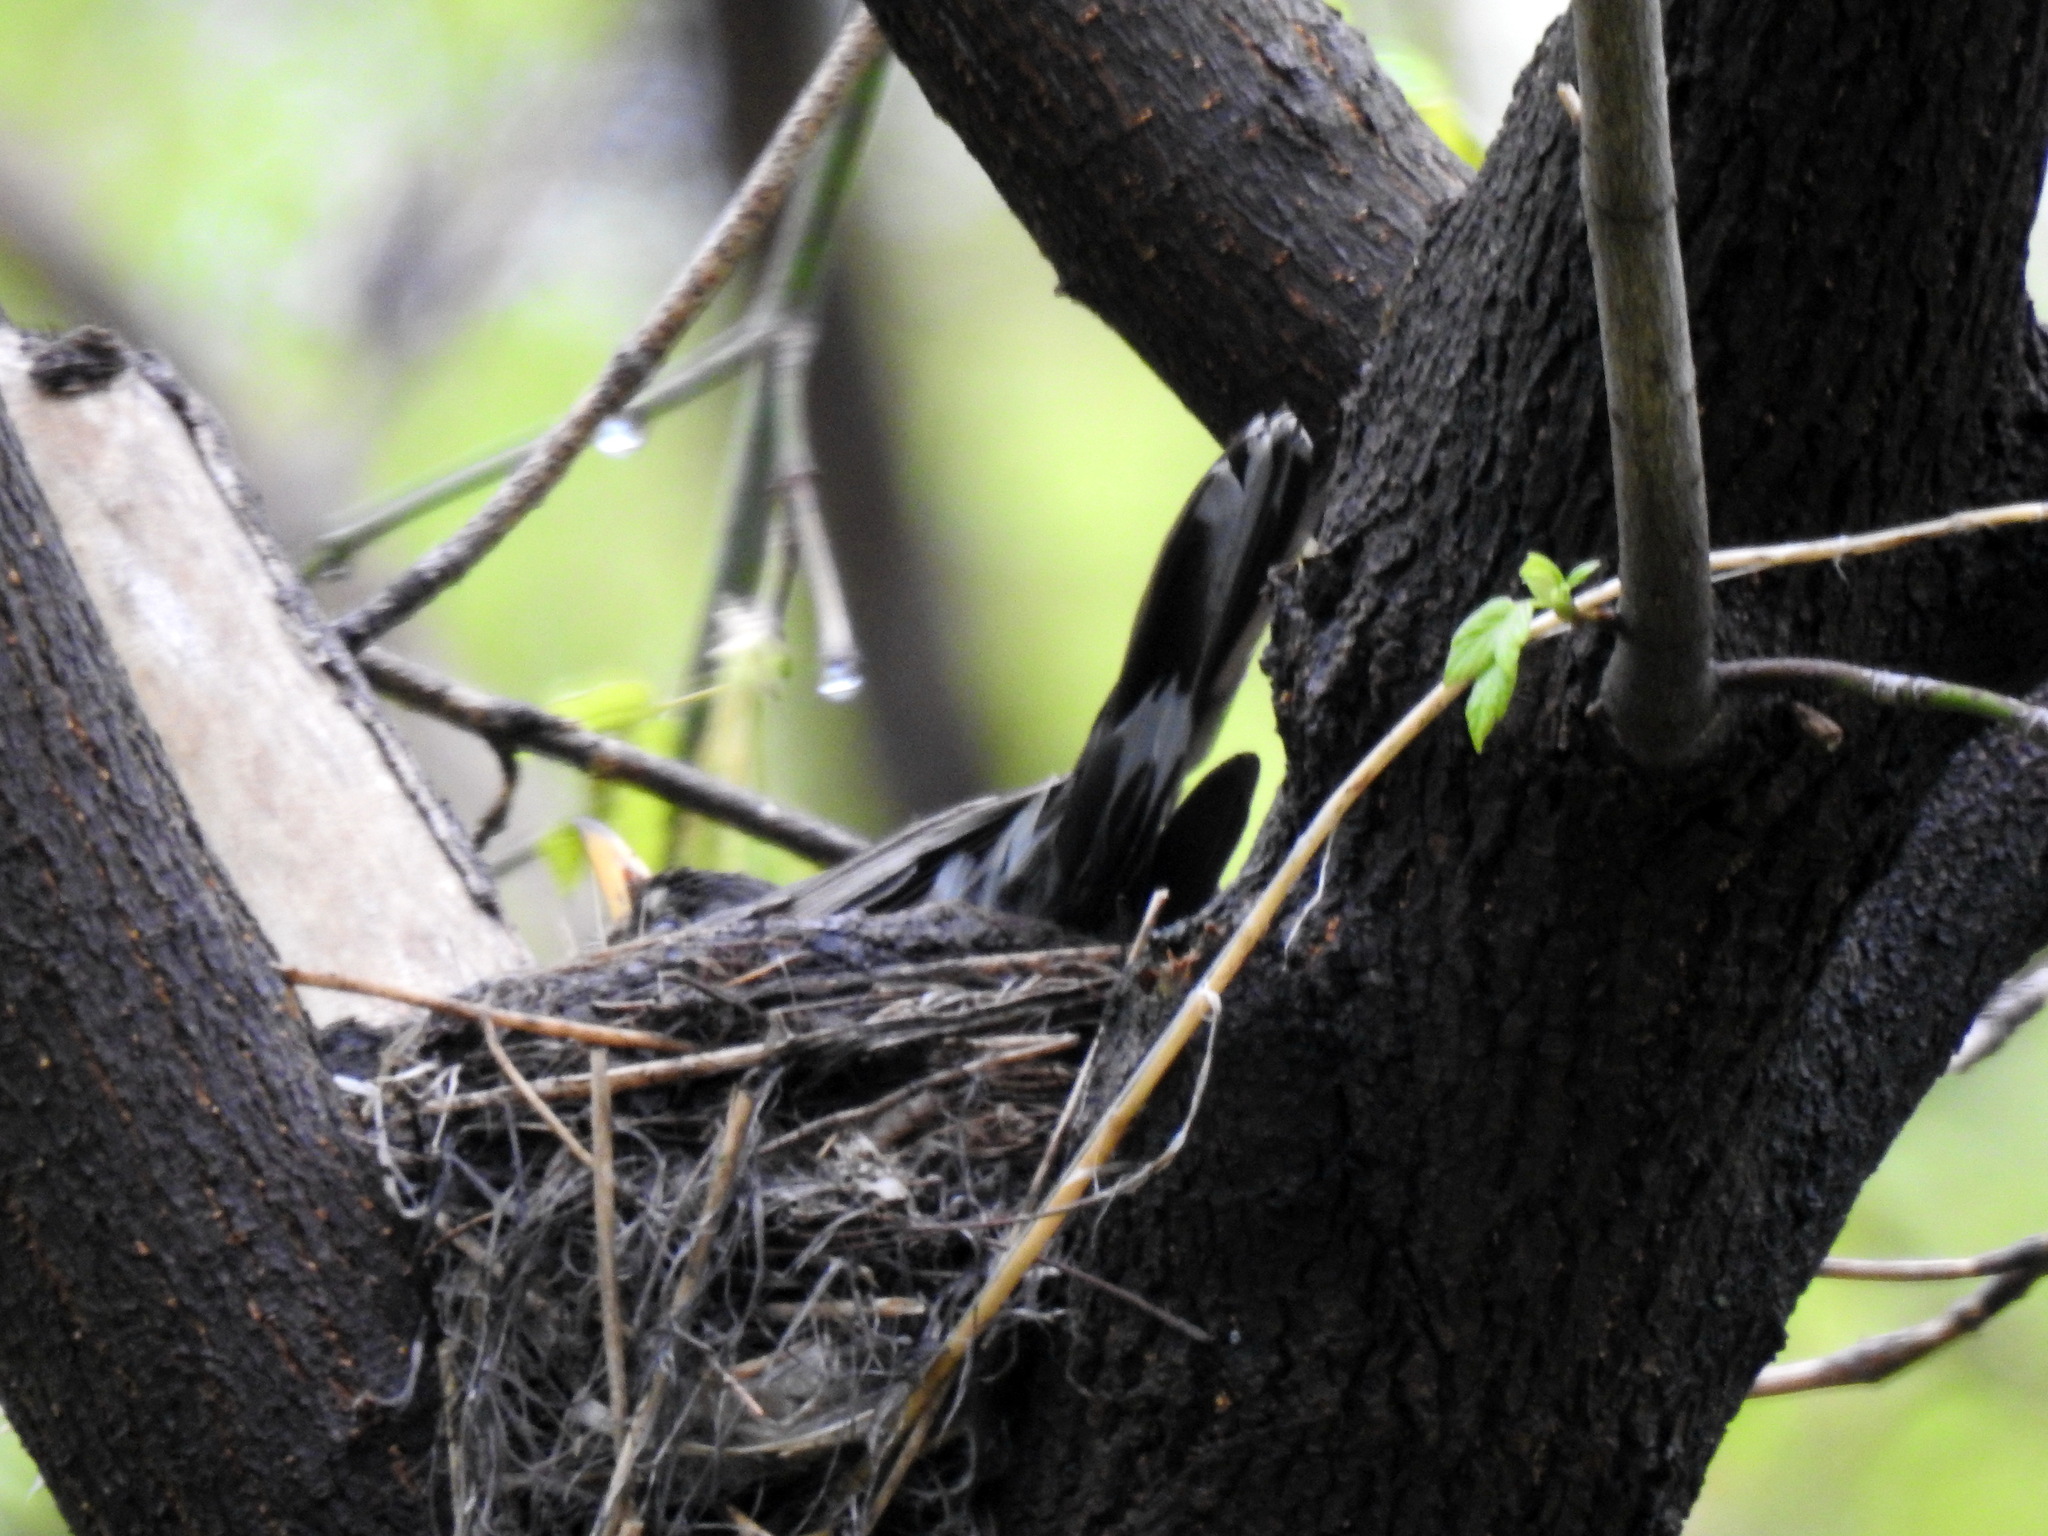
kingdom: Animalia
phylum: Chordata
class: Aves
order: Passeriformes
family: Turdidae
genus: Turdus
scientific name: Turdus migratorius
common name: American robin
